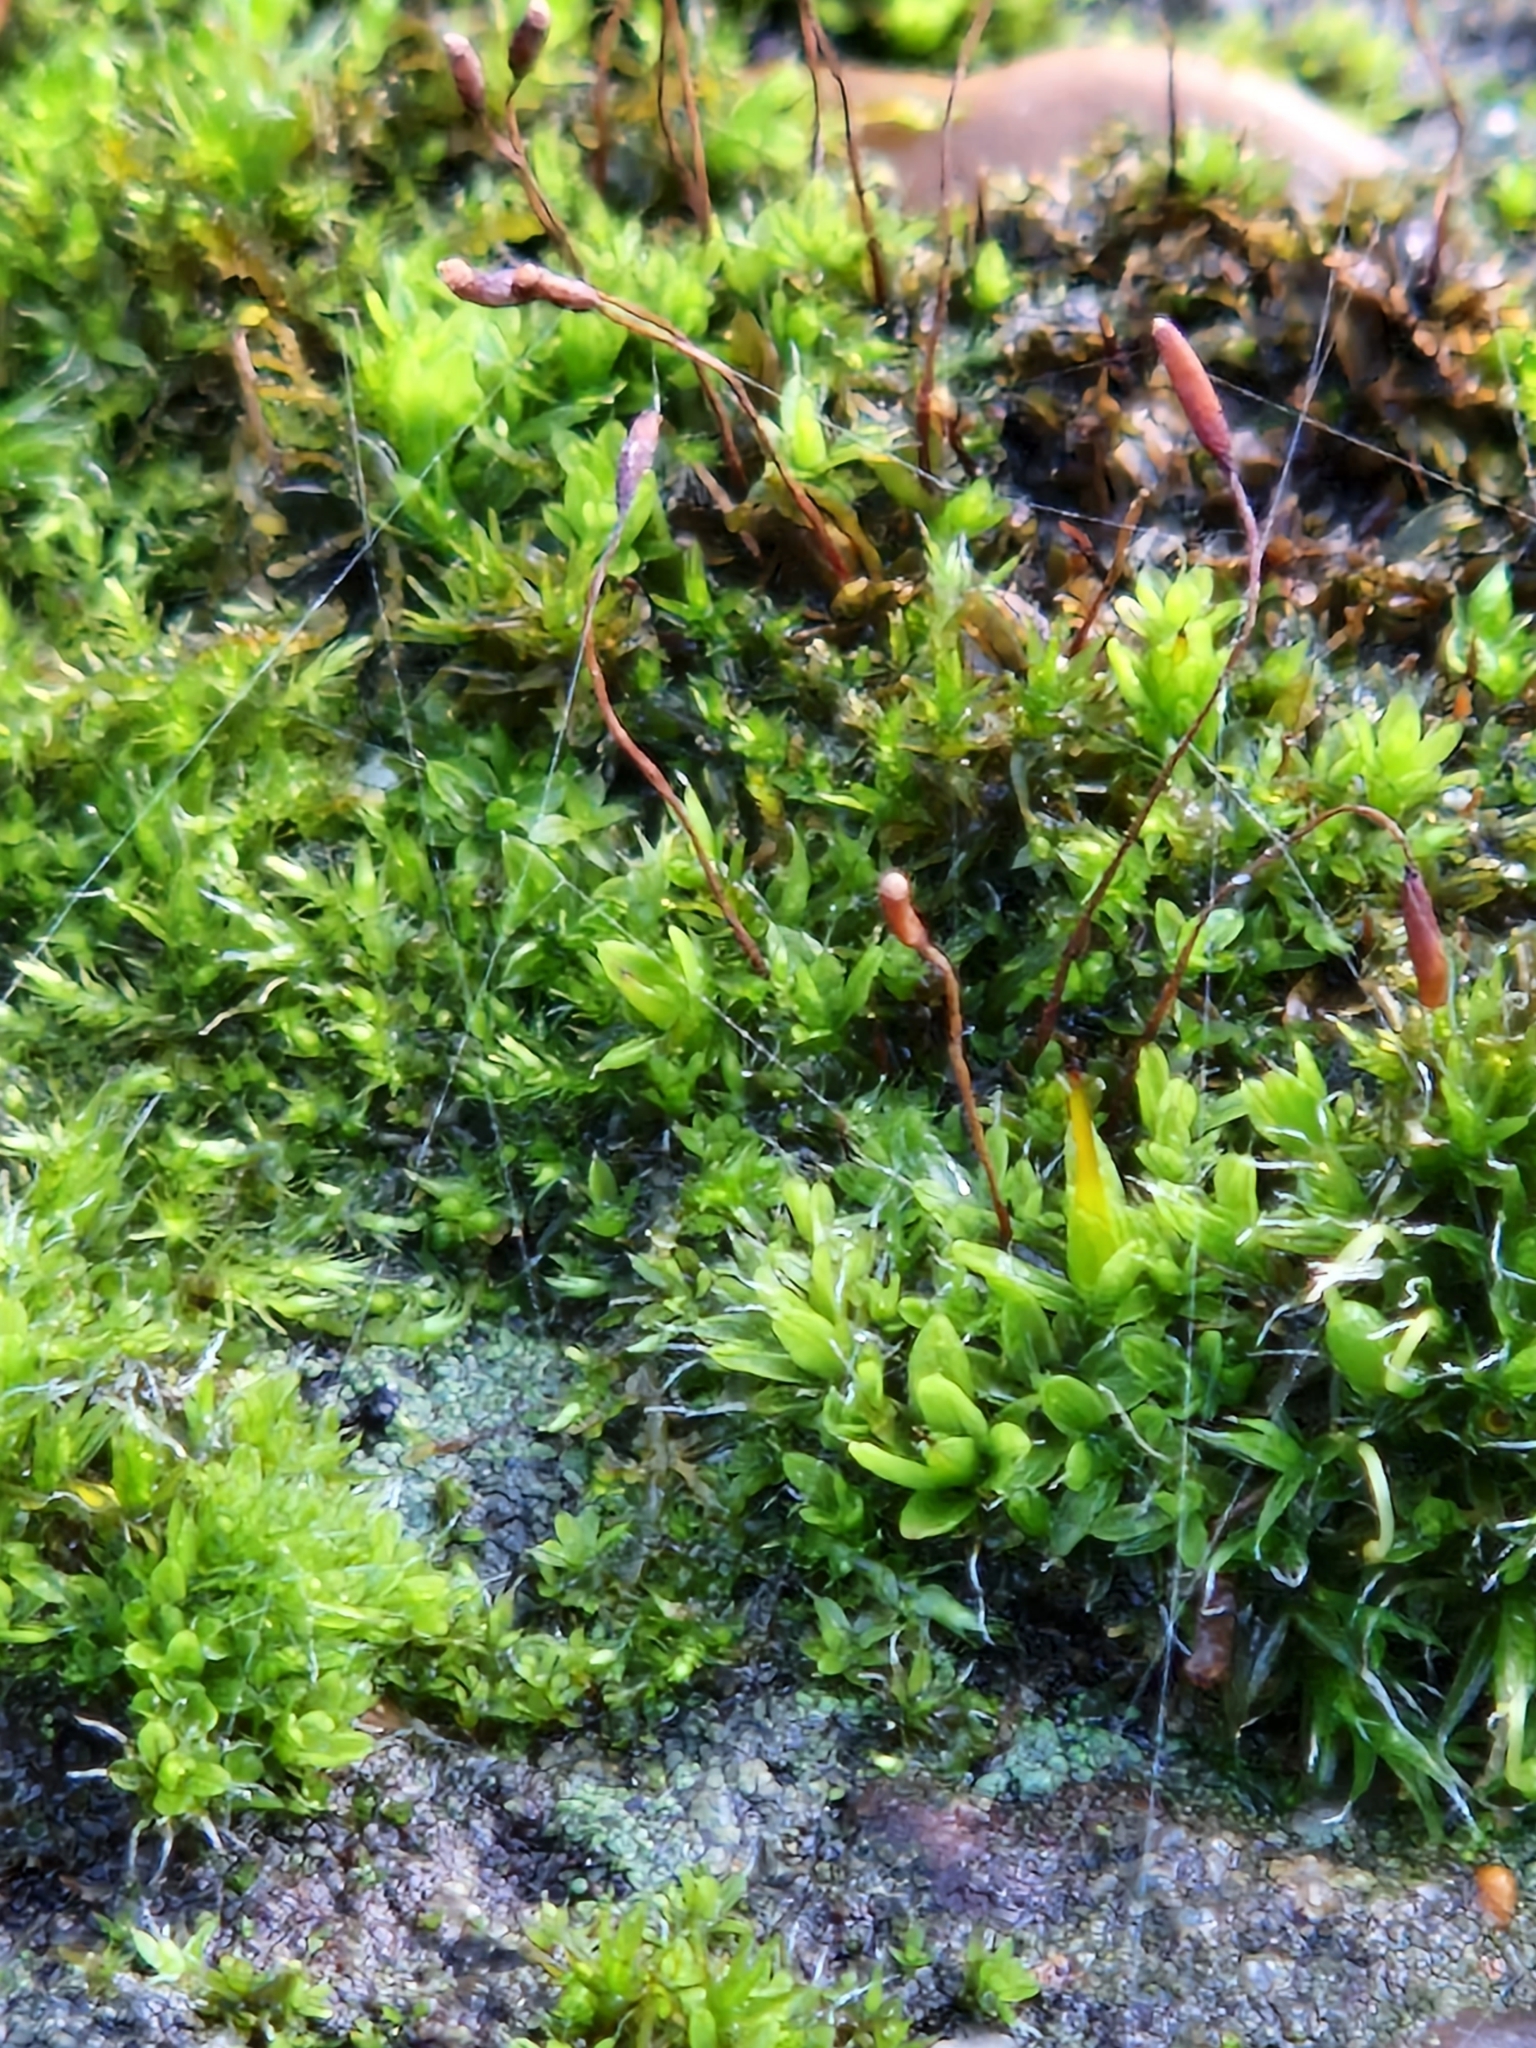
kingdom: Plantae
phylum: Bryophyta
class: Bryopsida
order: Pottiales
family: Pottiaceae
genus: Tortula
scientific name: Tortula muralis
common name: Wall screw-moss
